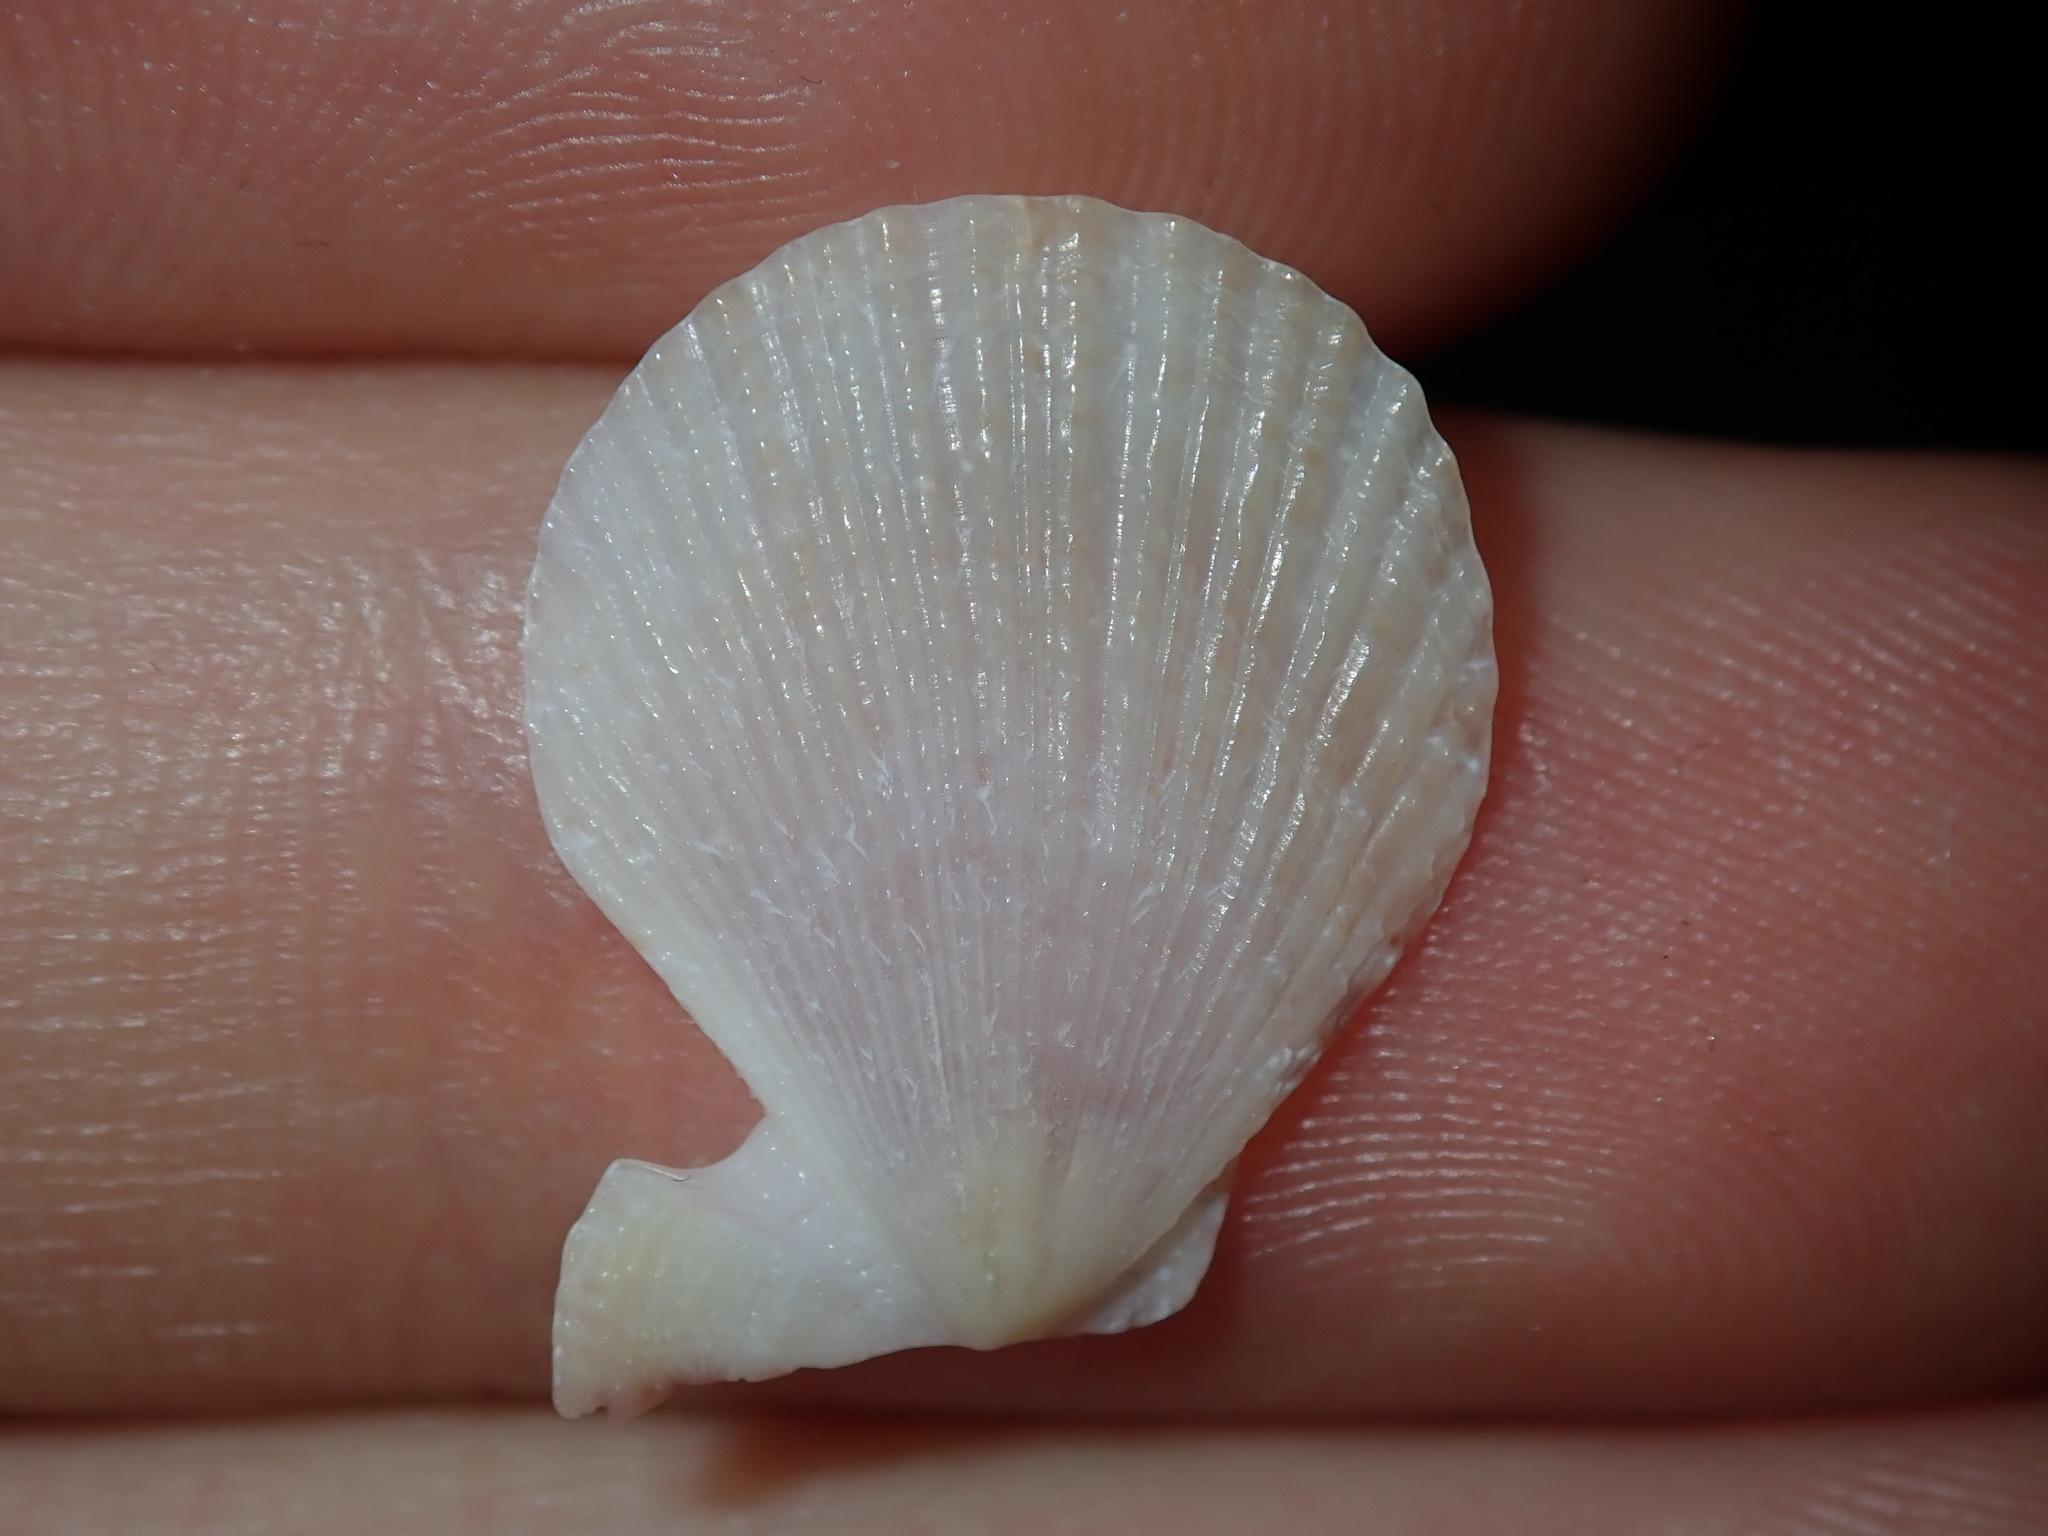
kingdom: Animalia
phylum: Mollusca
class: Bivalvia
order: Pectinida
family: Pectinidae
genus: Scaeochlamys
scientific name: Scaeochlamys livida
